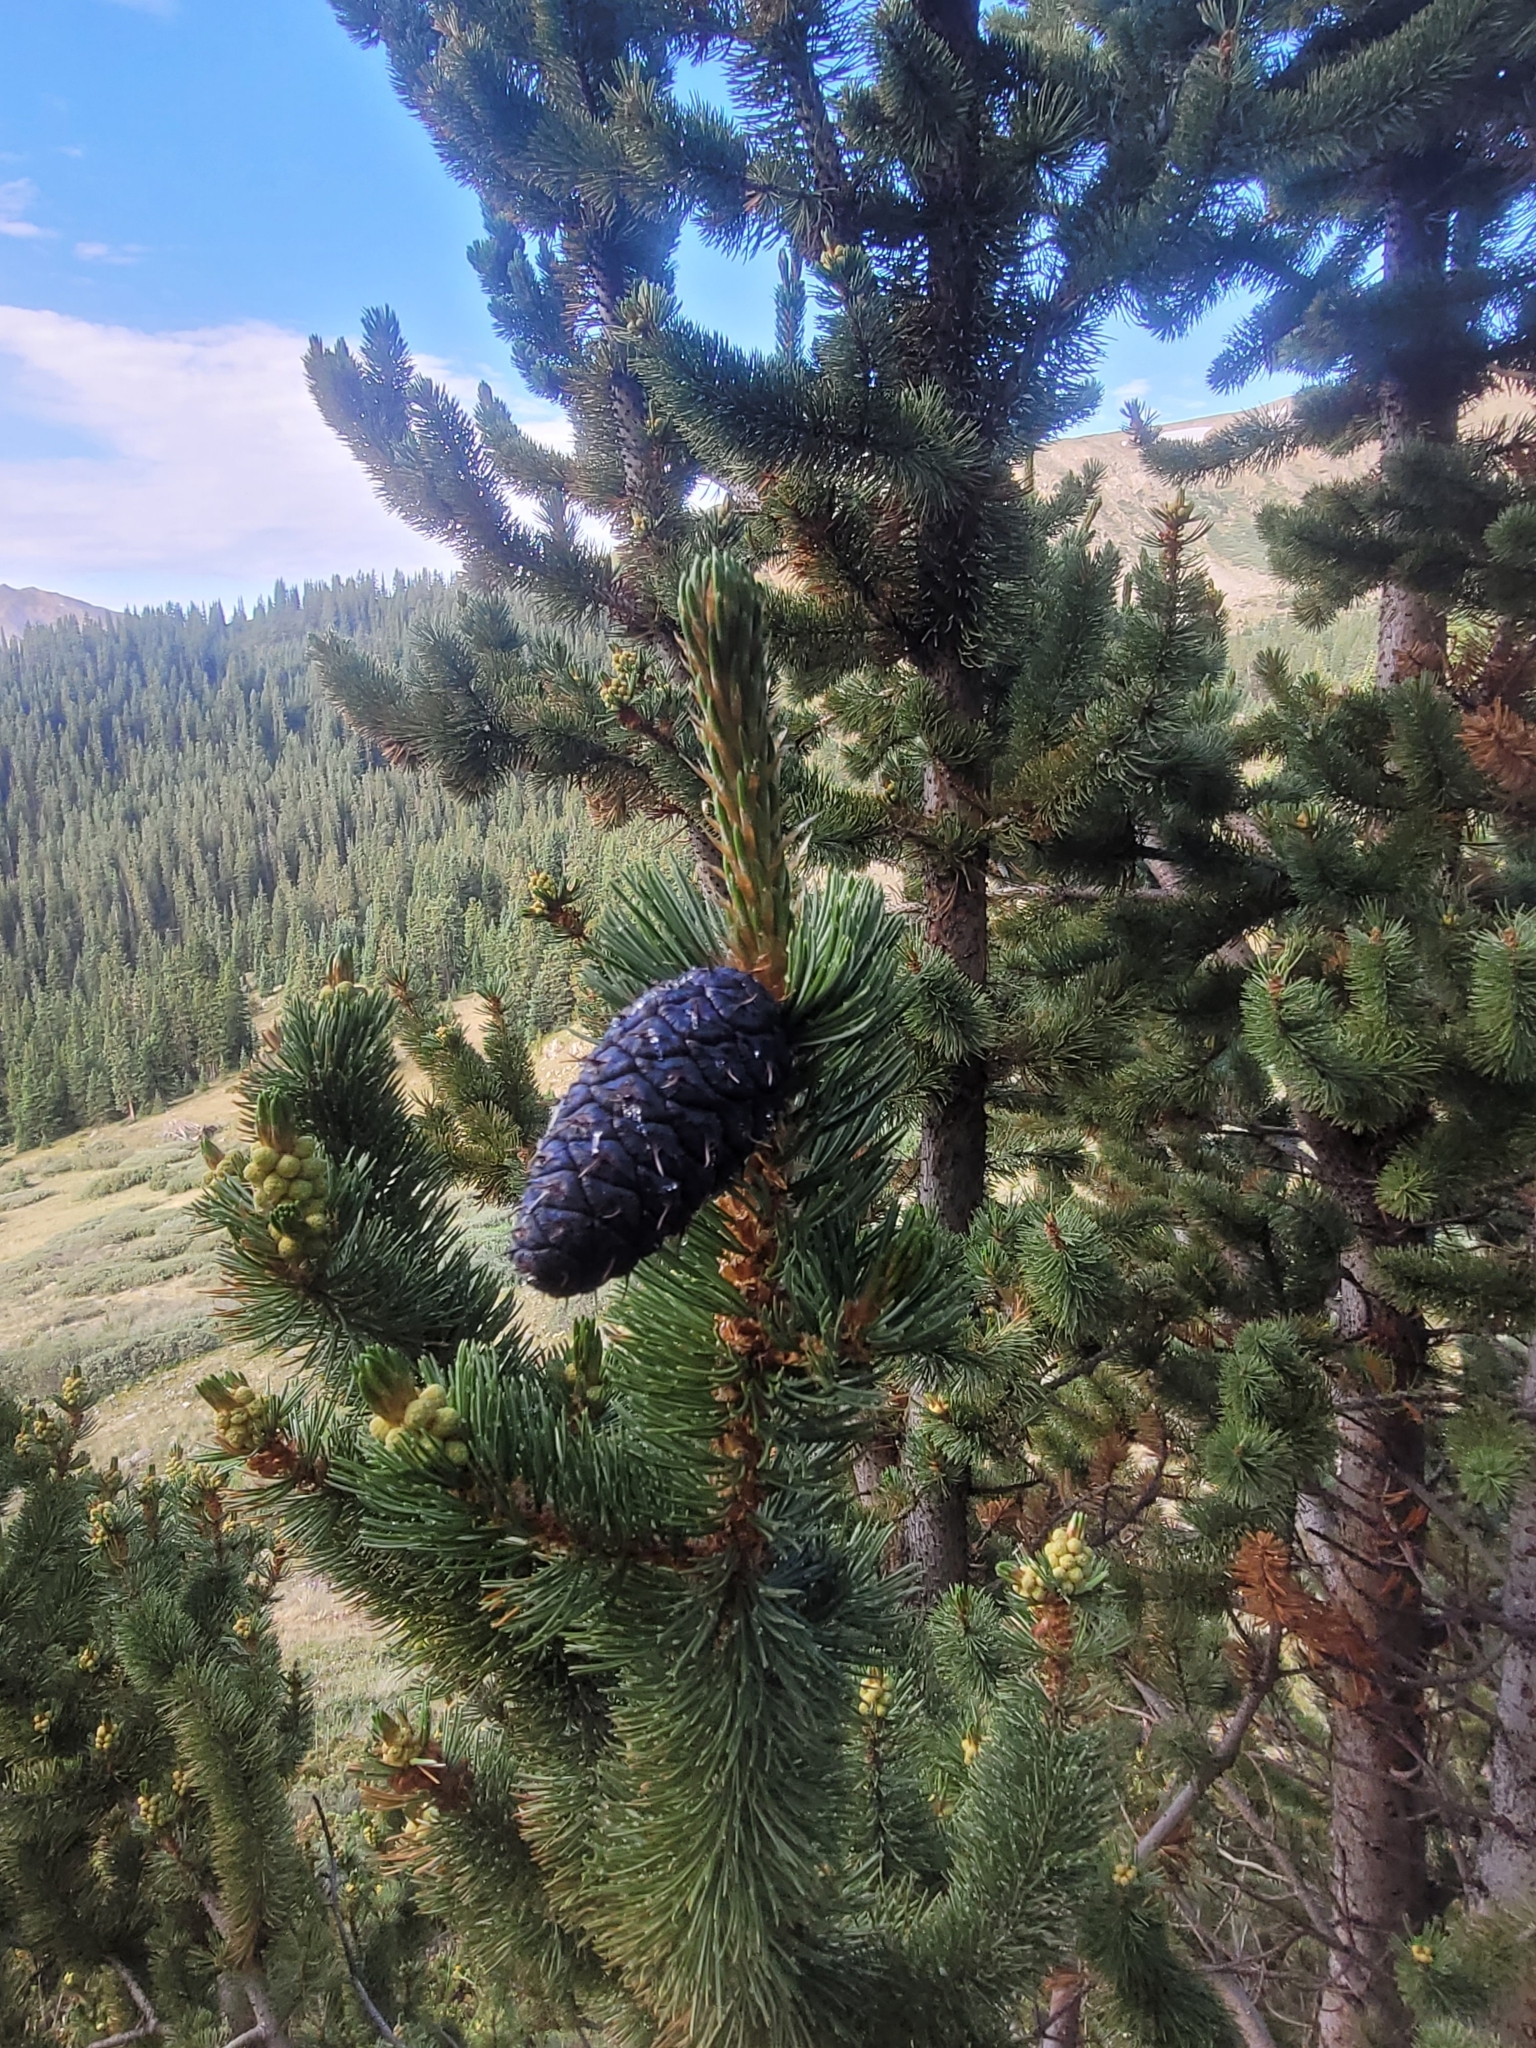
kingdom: Plantae
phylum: Tracheophyta
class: Pinopsida
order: Pinales
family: Pinaceae
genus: Pinus
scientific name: Pinus aristata
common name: Colorado bristlecone pine
